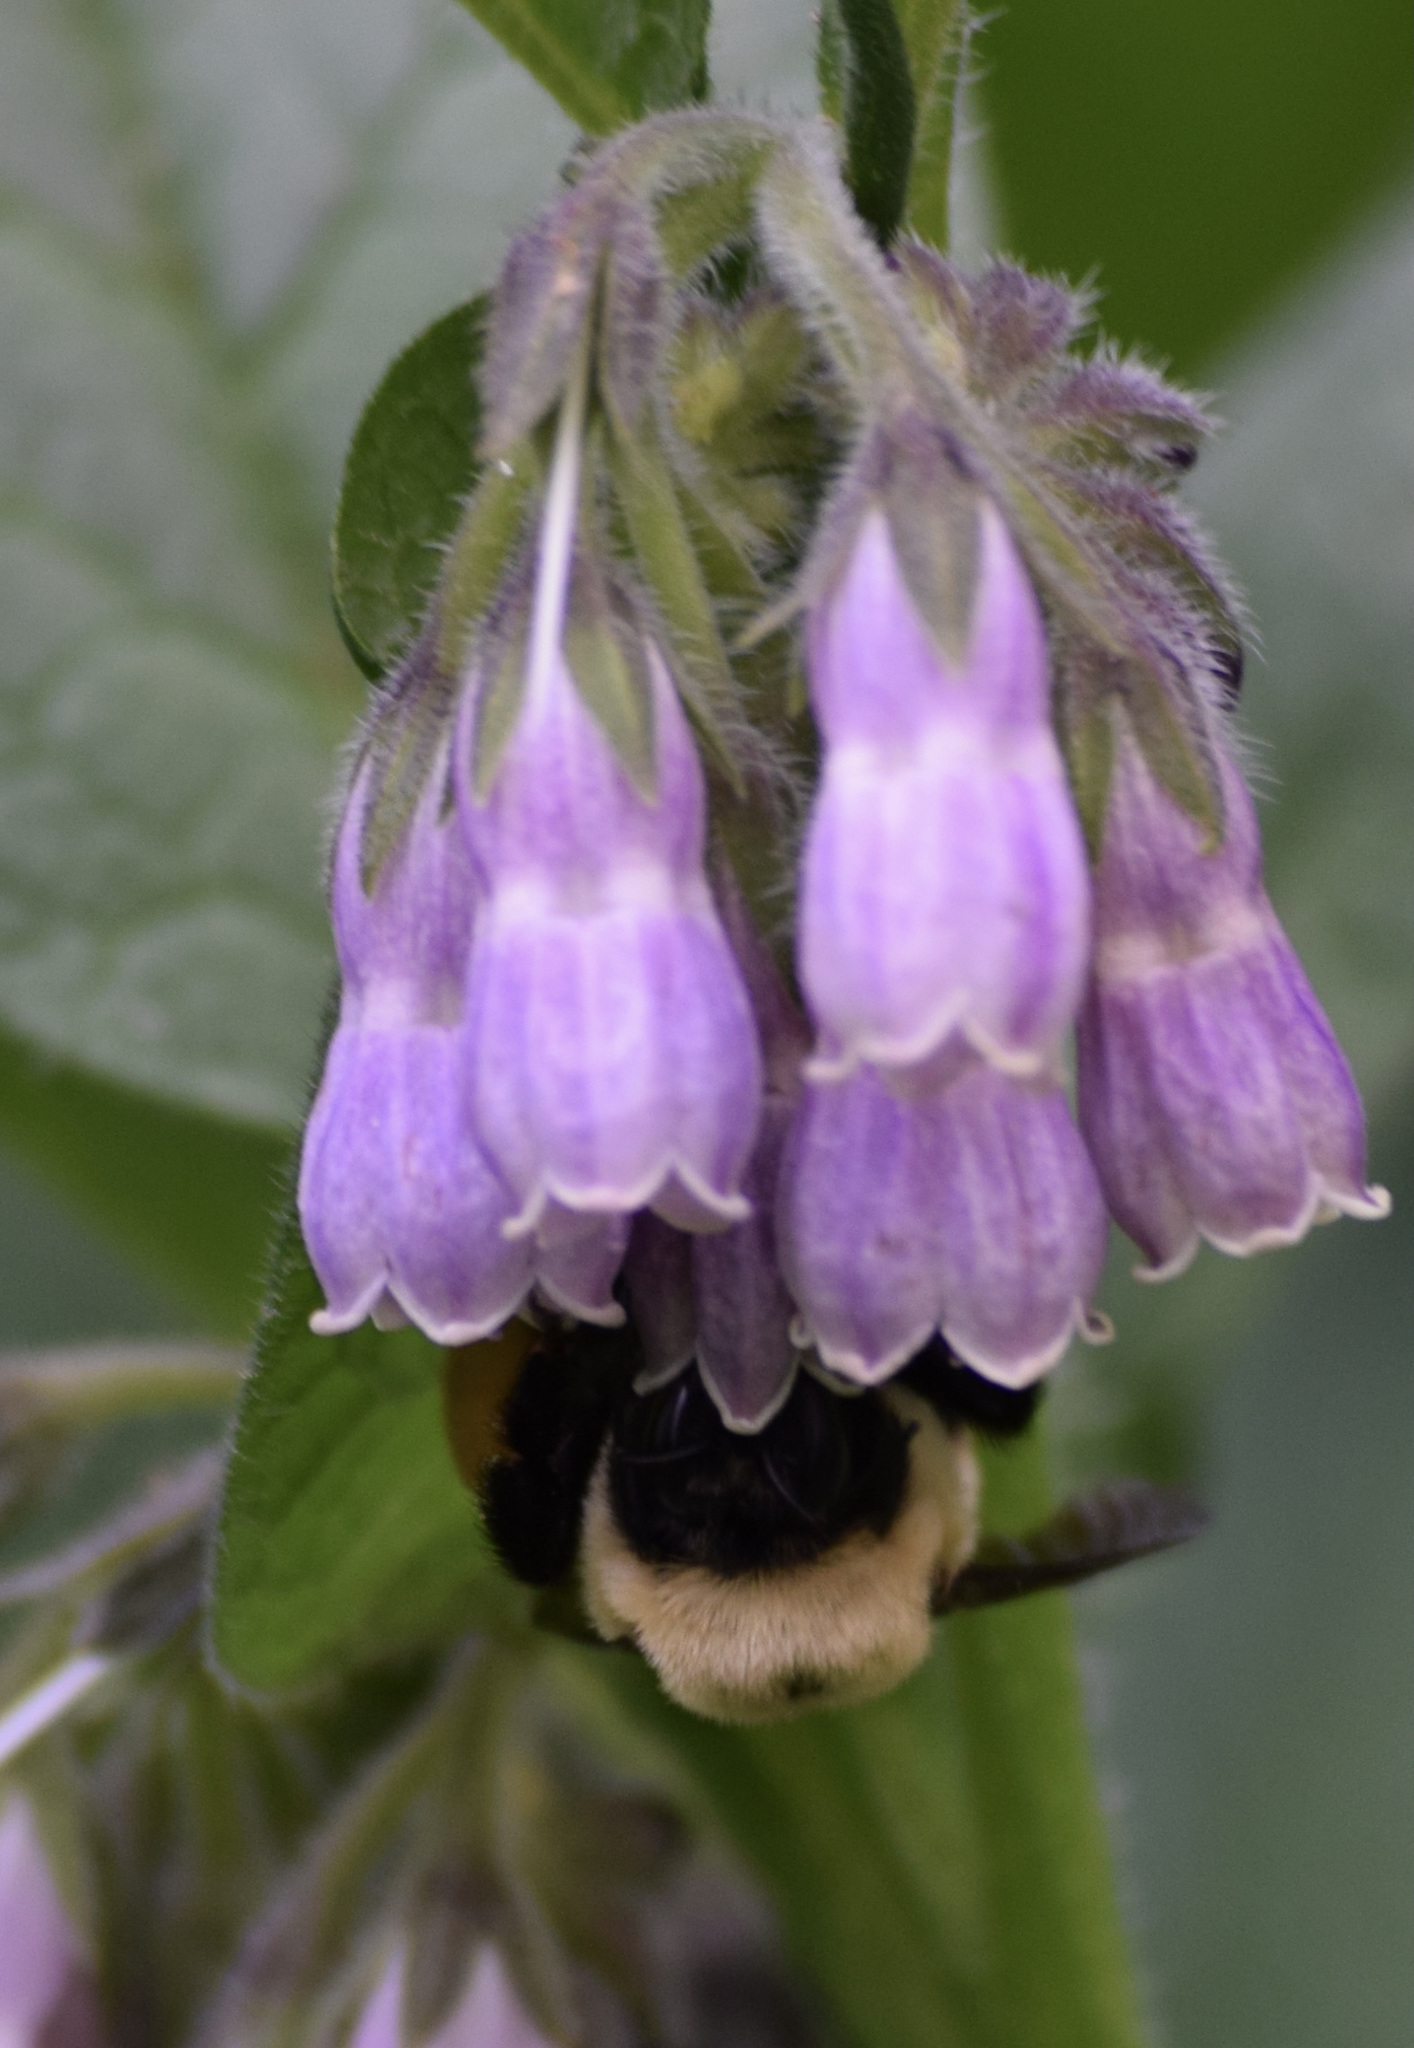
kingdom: Animalia
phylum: Arthropoda
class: Insecta
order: Hymenoptera
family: Apidae
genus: Bombus
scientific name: Bombus griseocollis
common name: Brown-belted bumble bee
